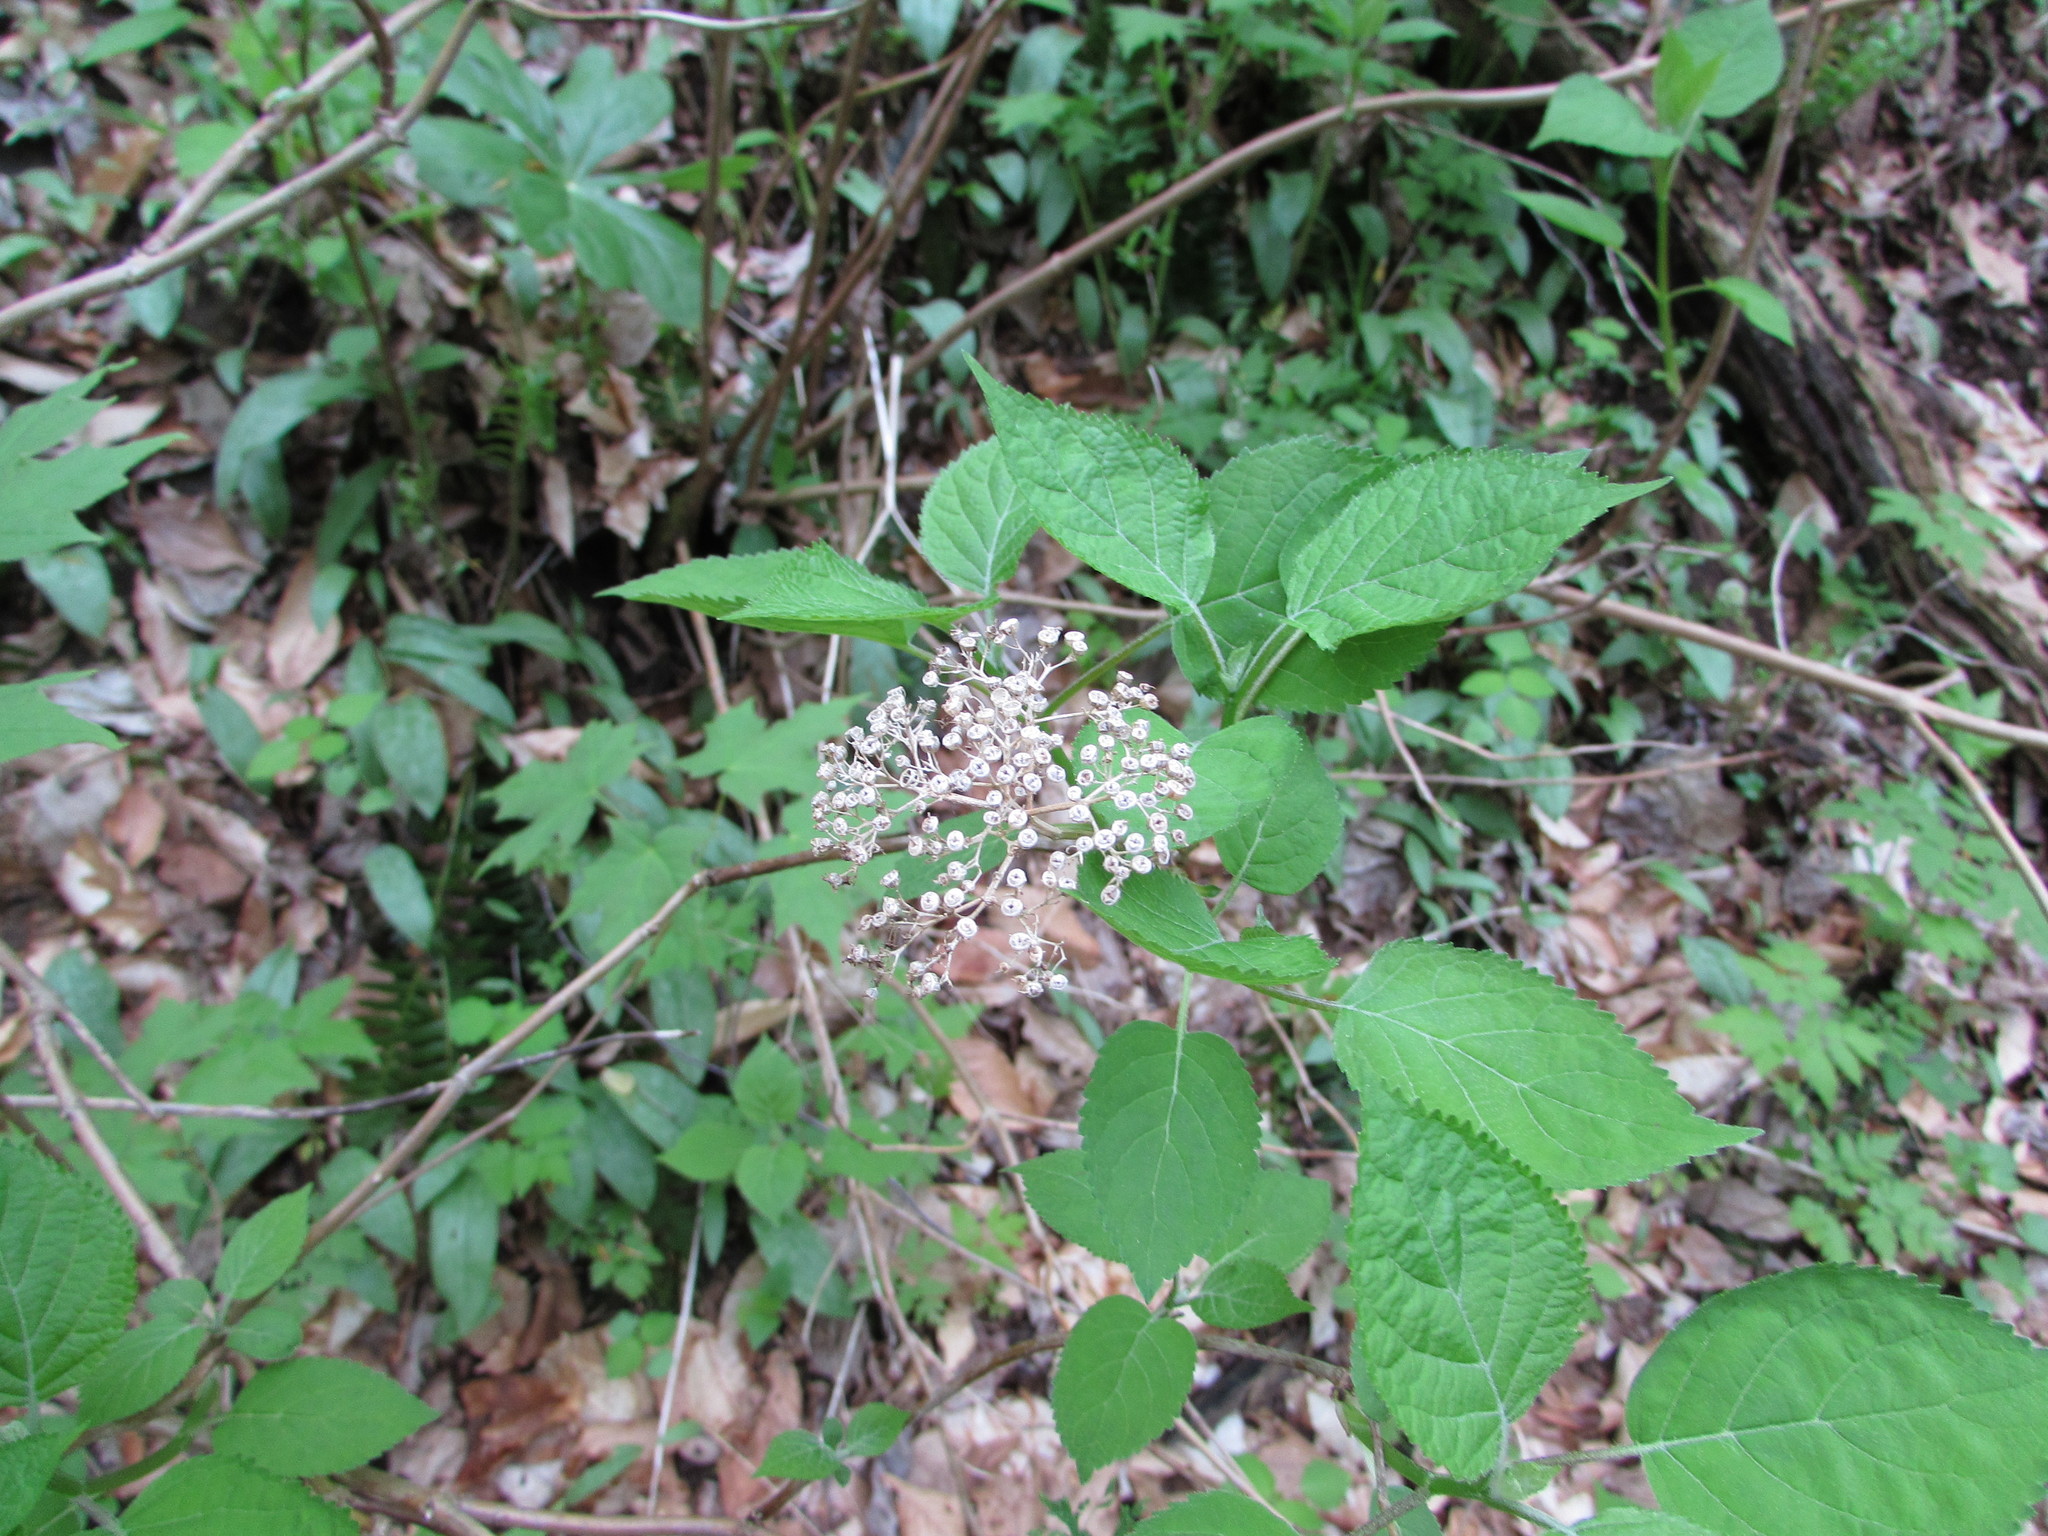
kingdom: Plantae
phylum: Tracheophyta
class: Magnoliopsida
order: Cornales
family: Hydrangeaceae
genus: Hydrangea
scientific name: Hydrangea arborescens
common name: Sevenbark
